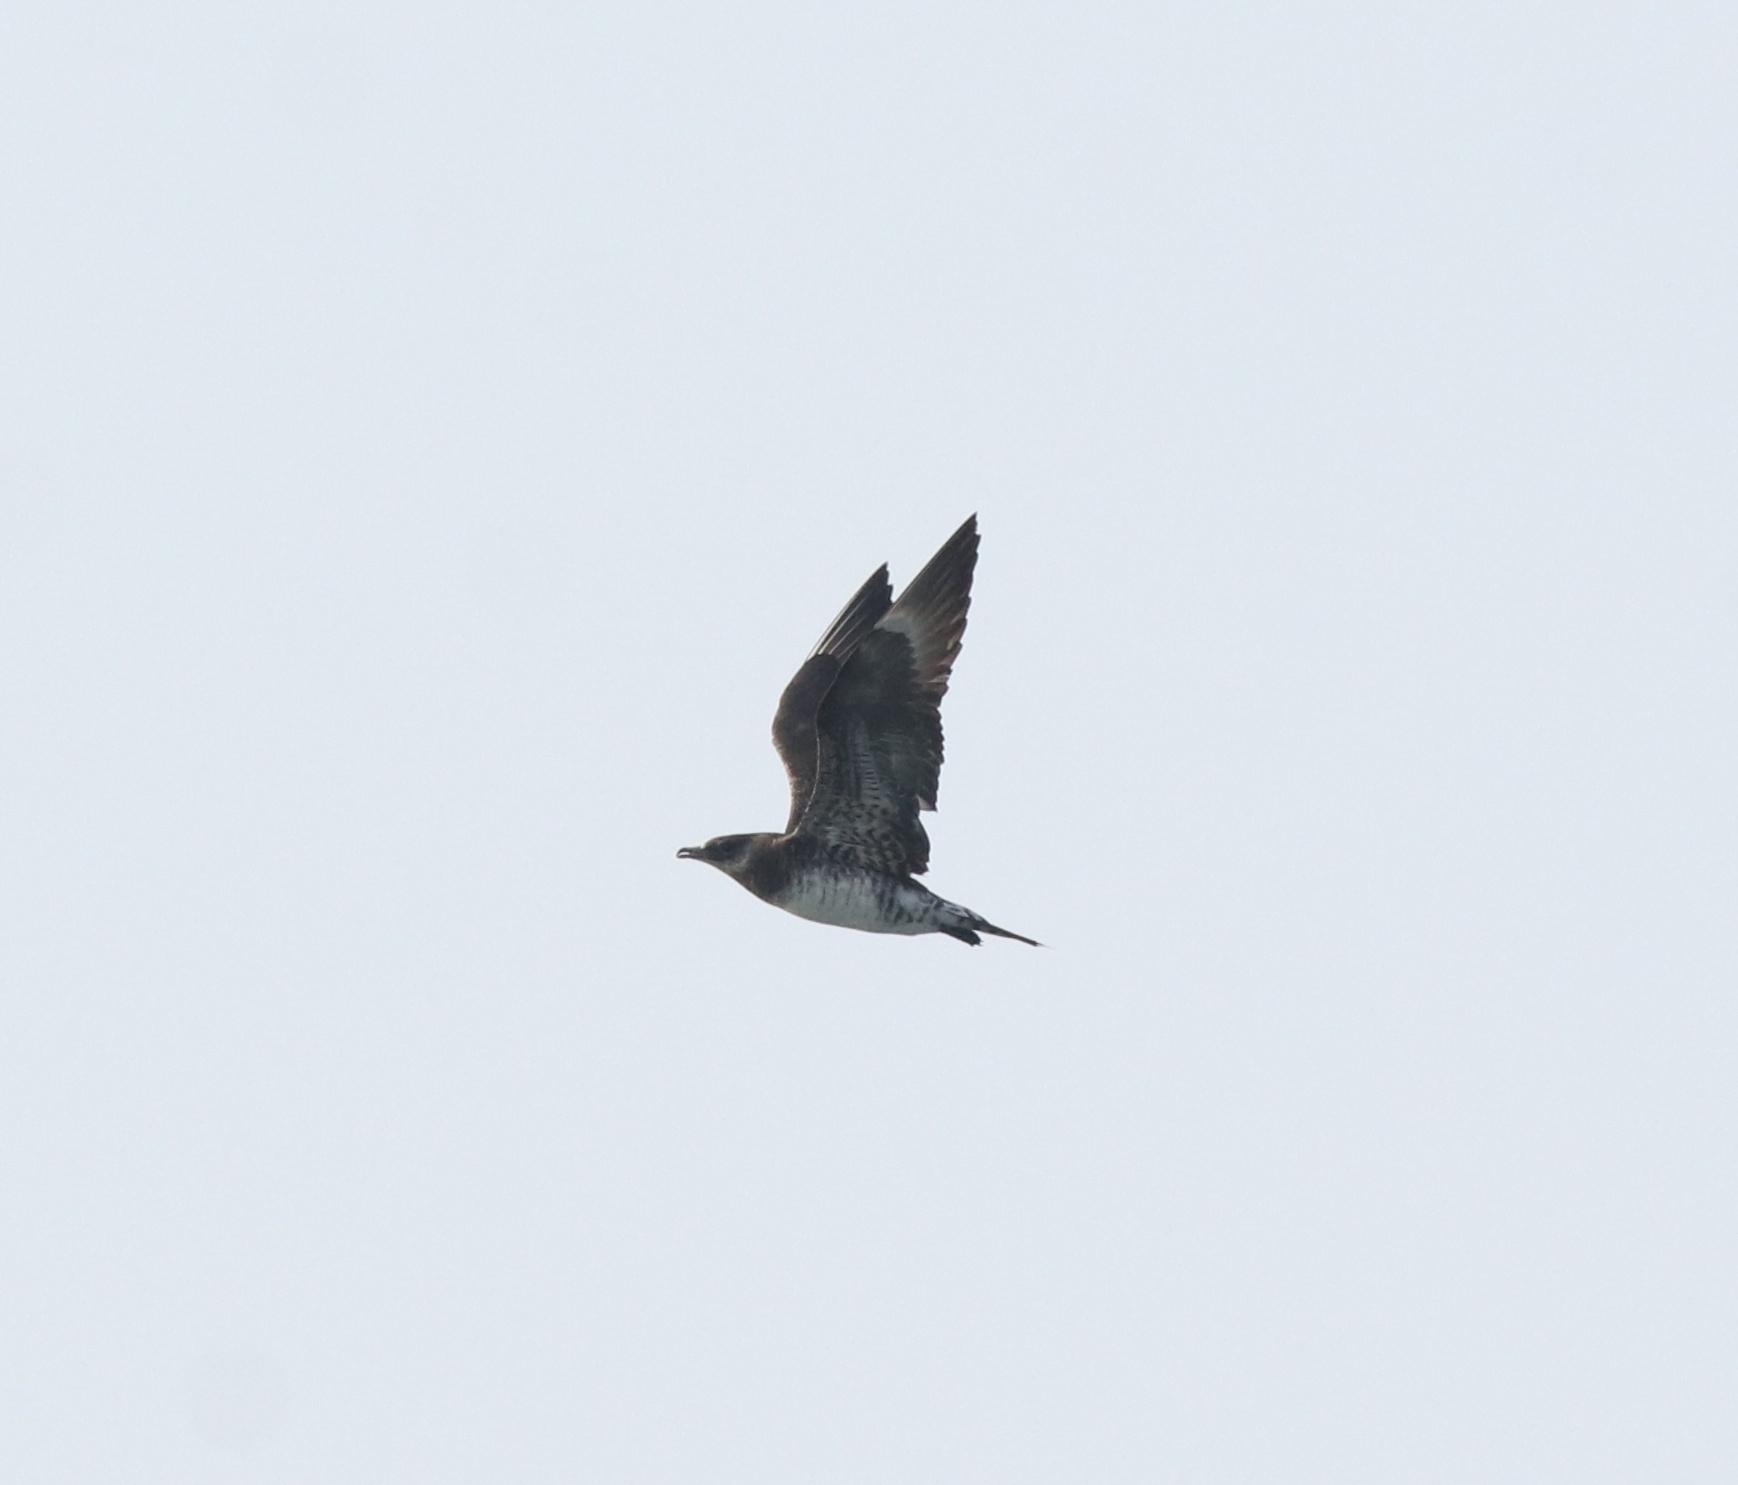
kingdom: Animalia
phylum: Chordata
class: Aves
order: Charadriiformes
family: Stercorariidae
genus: Stercorarius
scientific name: Stercorarius parasiticus
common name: Parasitic jaeger
